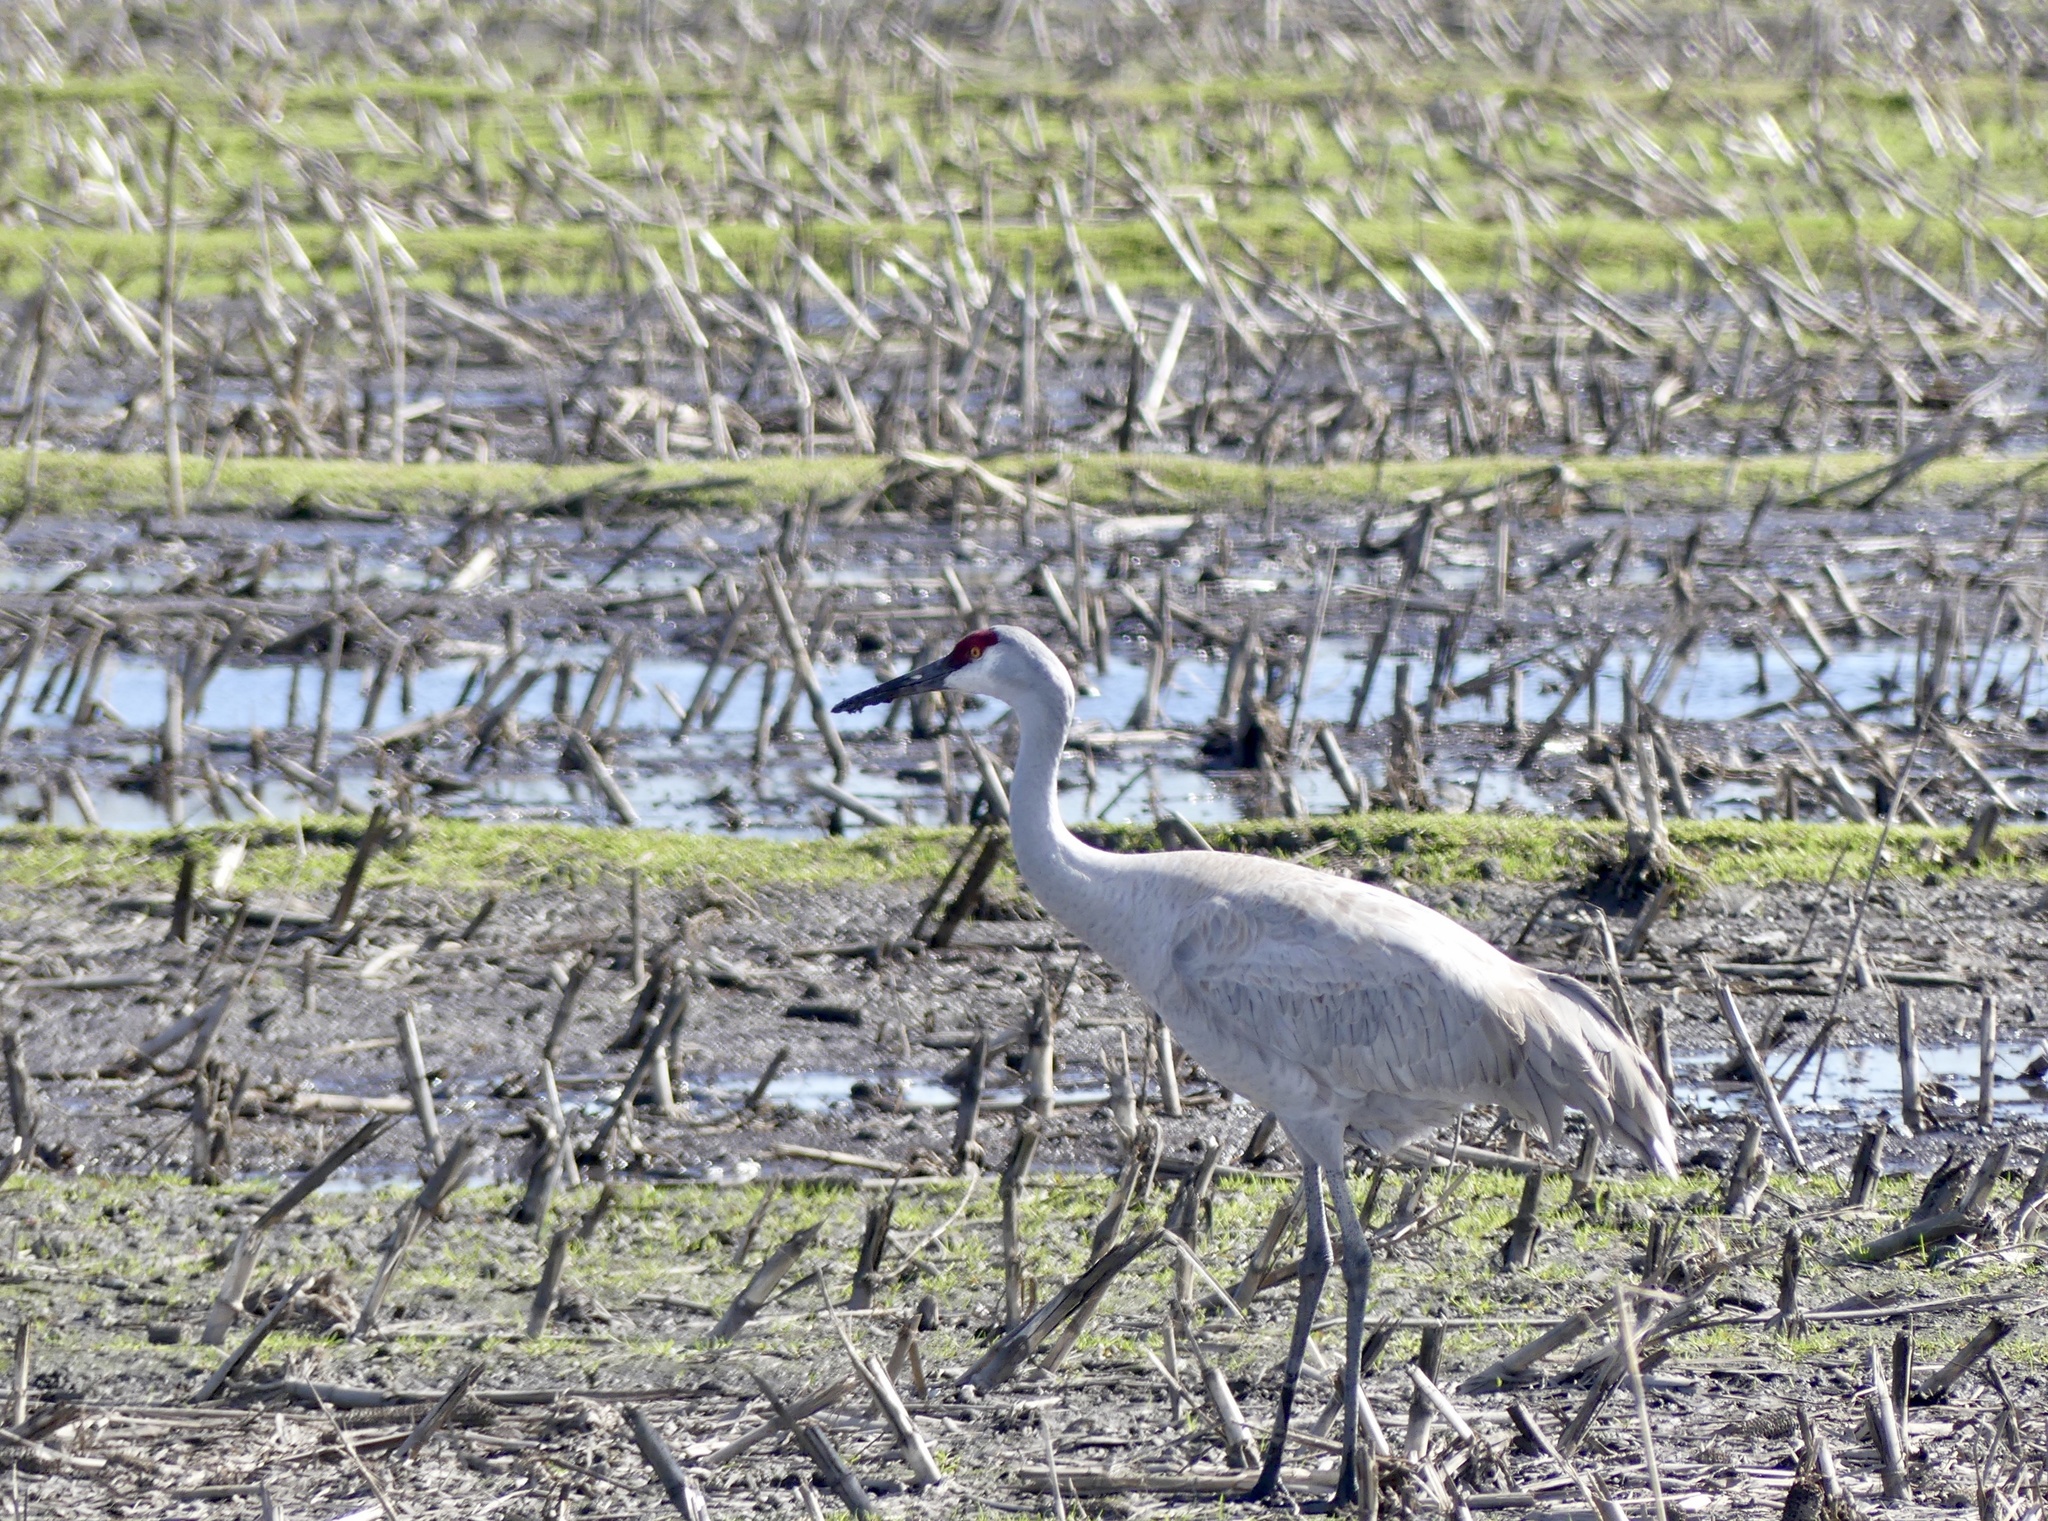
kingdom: Animalia
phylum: Chordata
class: Aves
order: Gruiformes
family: Gruidae
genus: Grus
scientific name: Grus canadensis
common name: Sandhill crane
